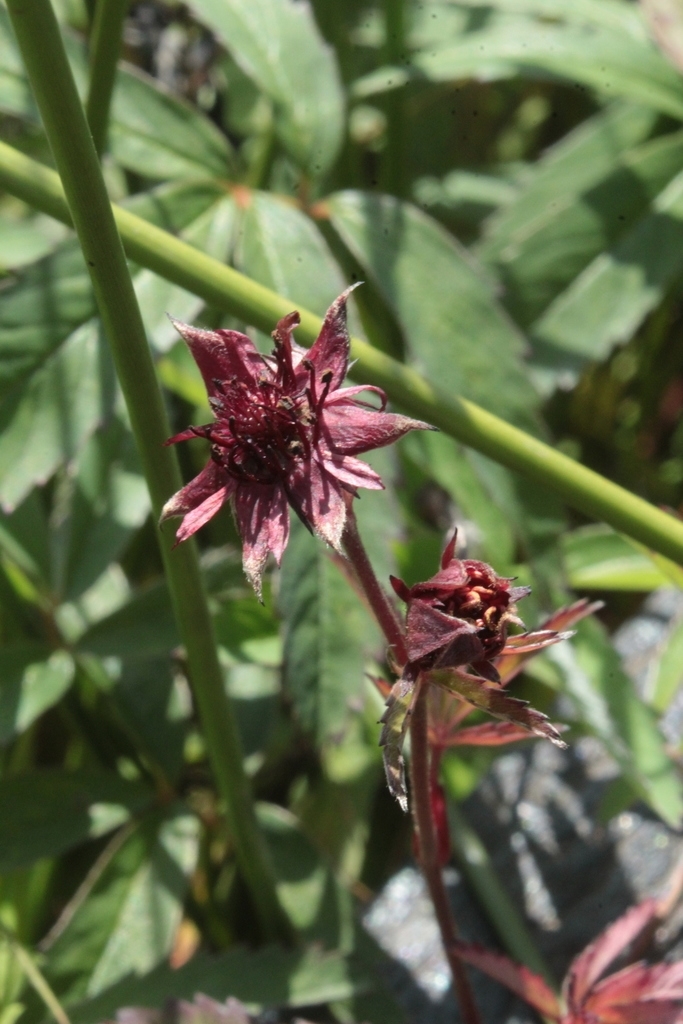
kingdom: Plantae
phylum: Tracheophyta
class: Magnoliopsida
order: Rosales
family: Rosaceae
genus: Comarum
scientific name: Comarum palustre
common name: Marsh cinquefoil
